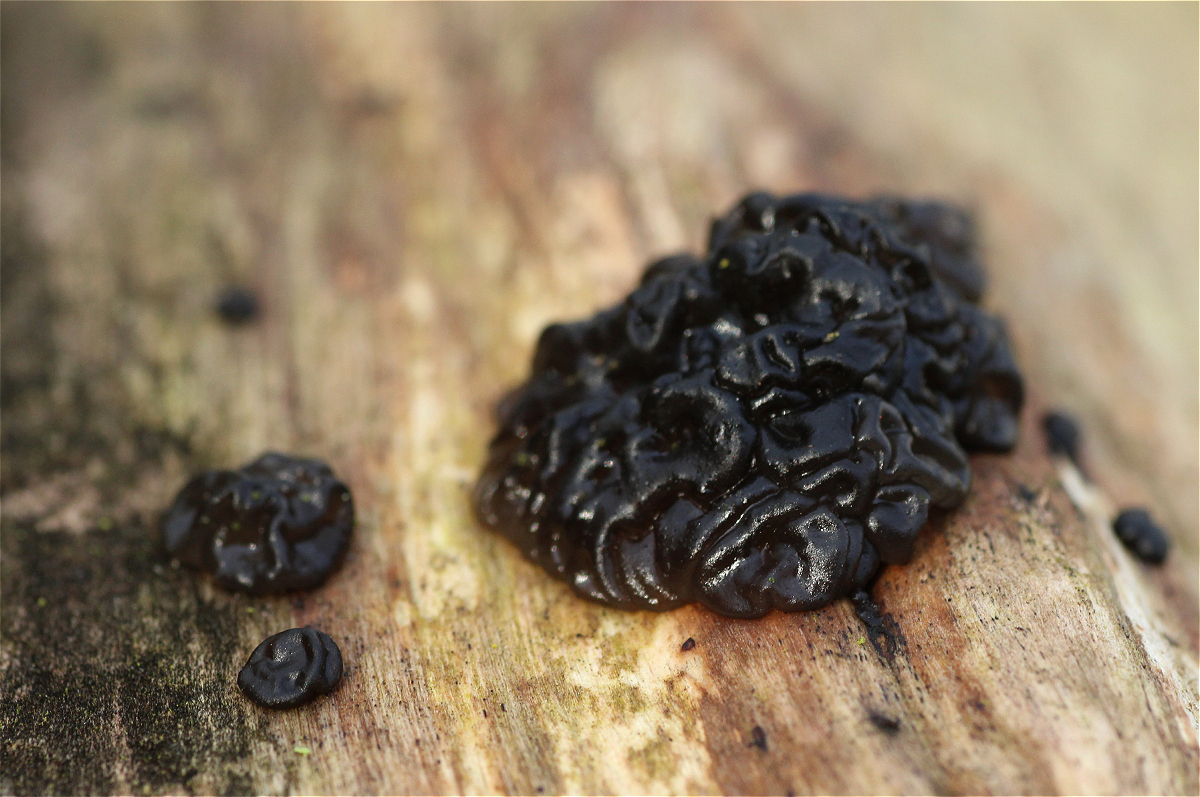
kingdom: Fungi
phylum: Basidiomycota
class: Agaricomycetes
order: Auriculariales
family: Auriculariaceae
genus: Exidia
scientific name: Exidia nigricans
